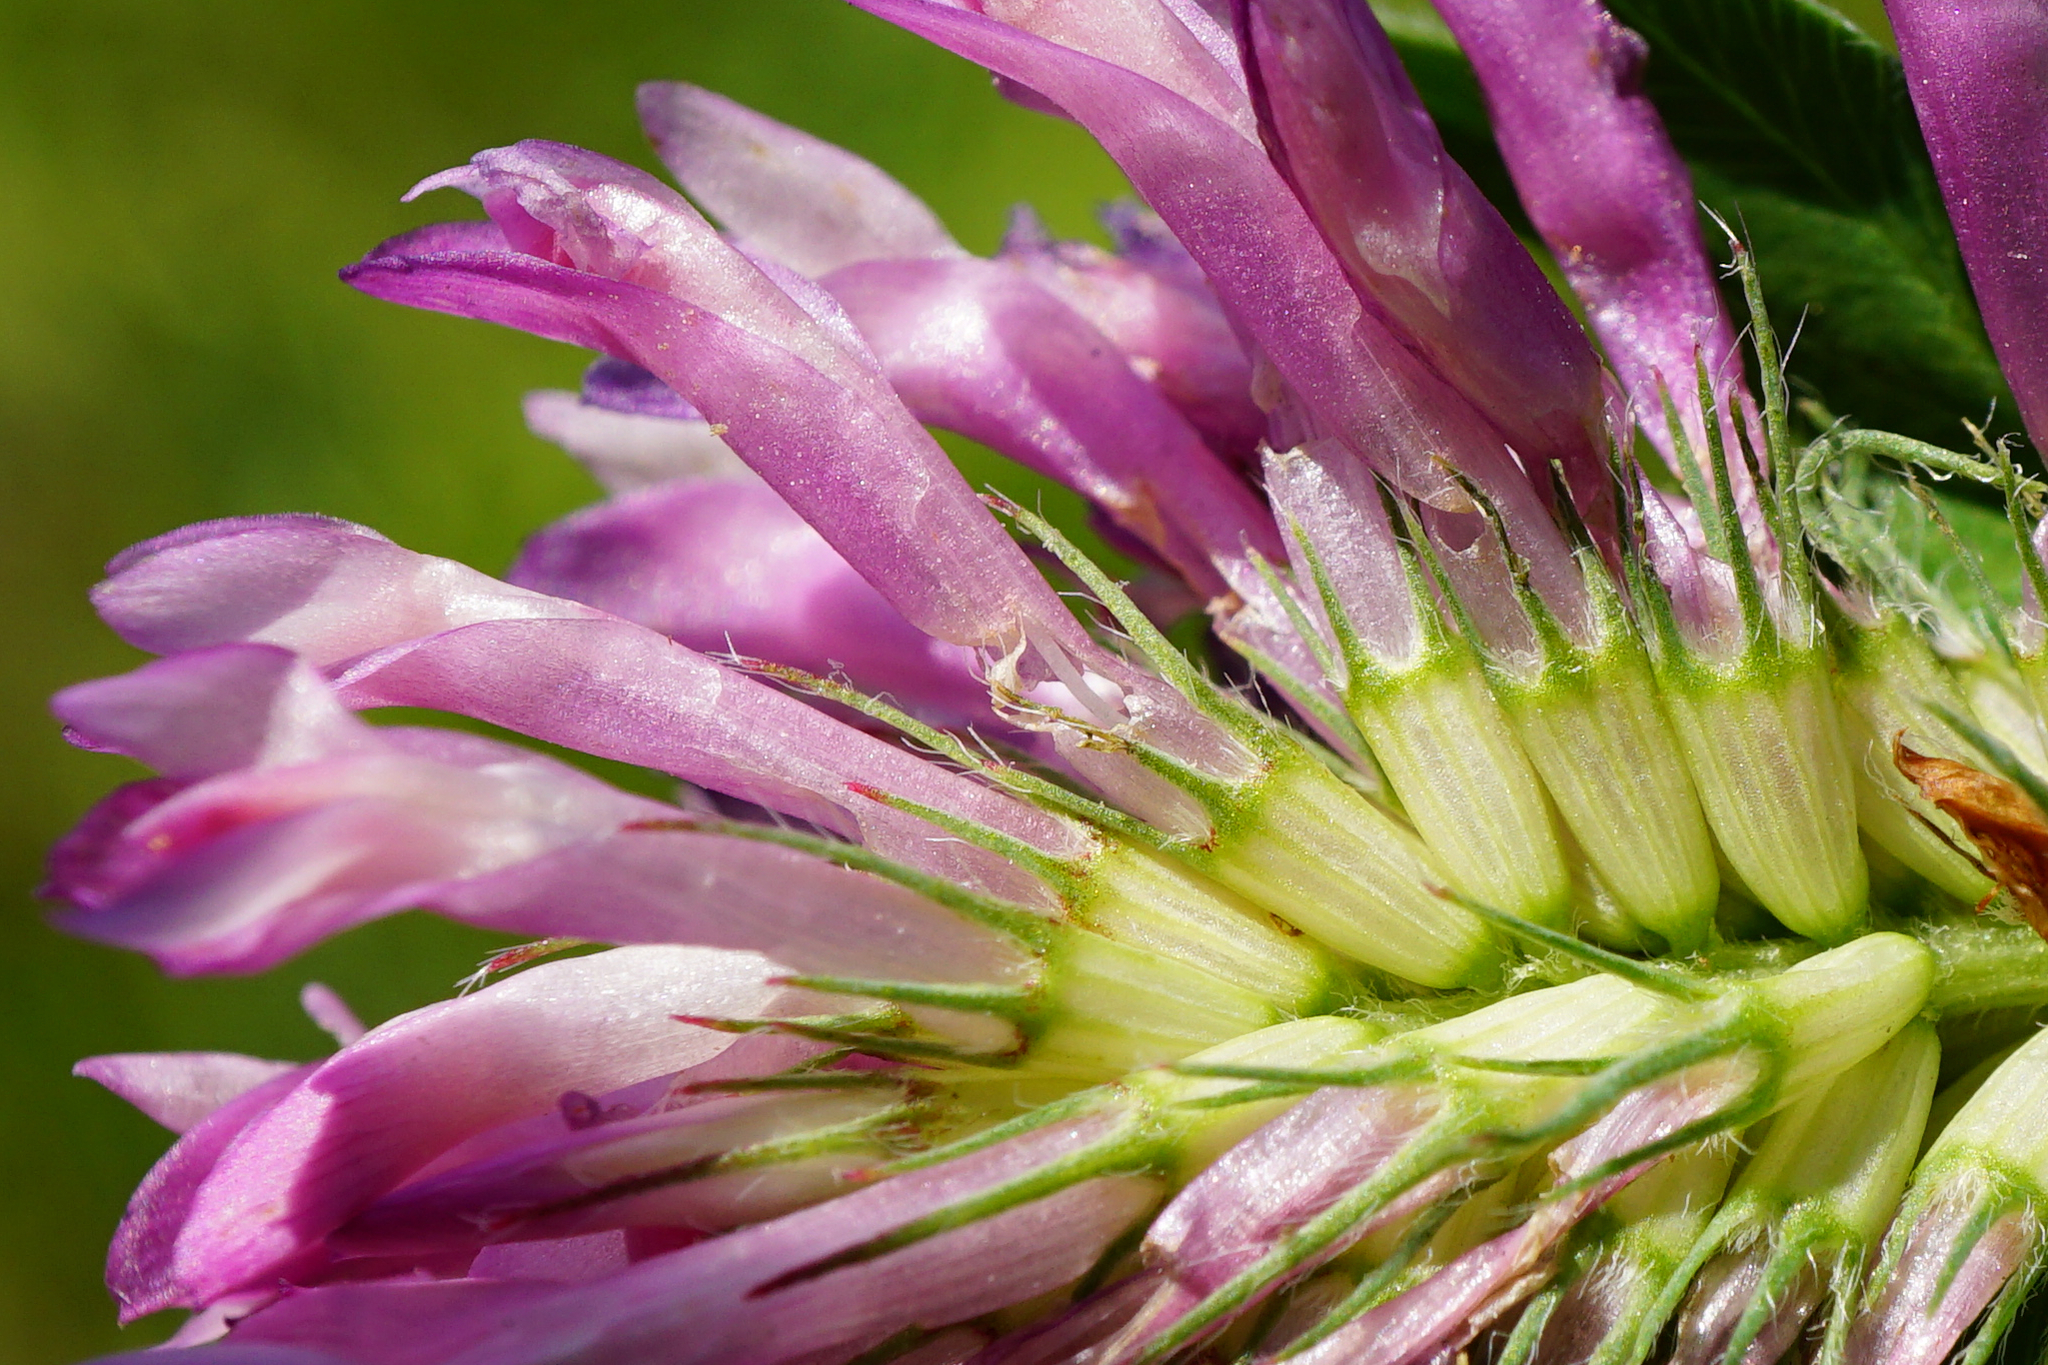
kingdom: Plantae
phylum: Tracheophyta
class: Magnoliopsida
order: Fabales
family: Fabaceae
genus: Trifolium
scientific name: Trifolium medium
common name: Zigzag clover
